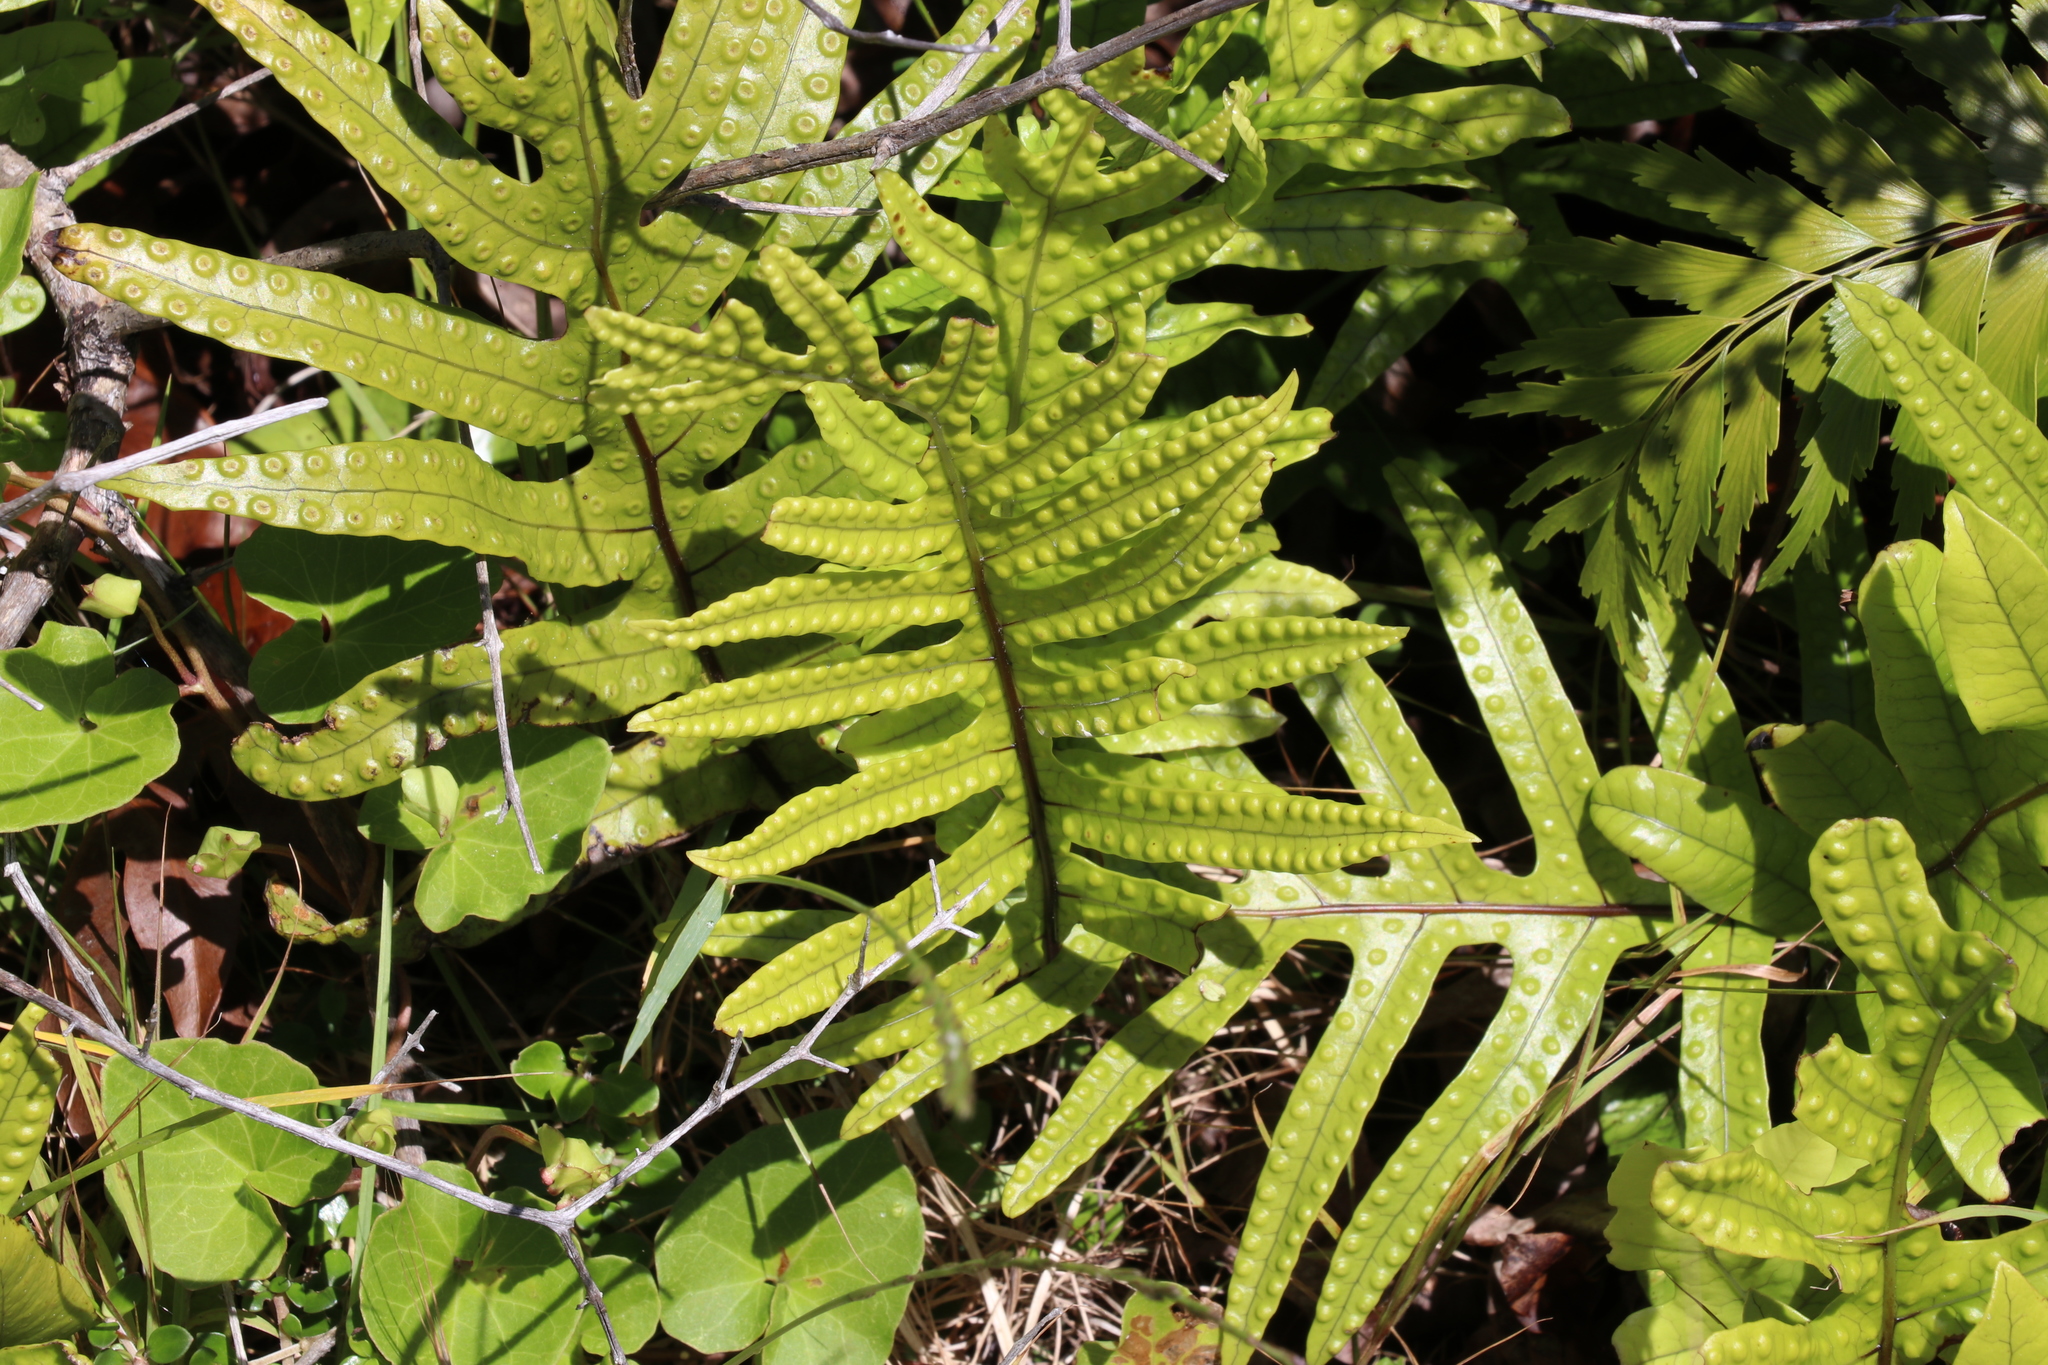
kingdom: Plantae
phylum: Tracheophyta
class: Polypodiopsida
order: Polypodiales
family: Polypodiaceae
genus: Lecanopteris
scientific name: Lecanopteris pustulata
